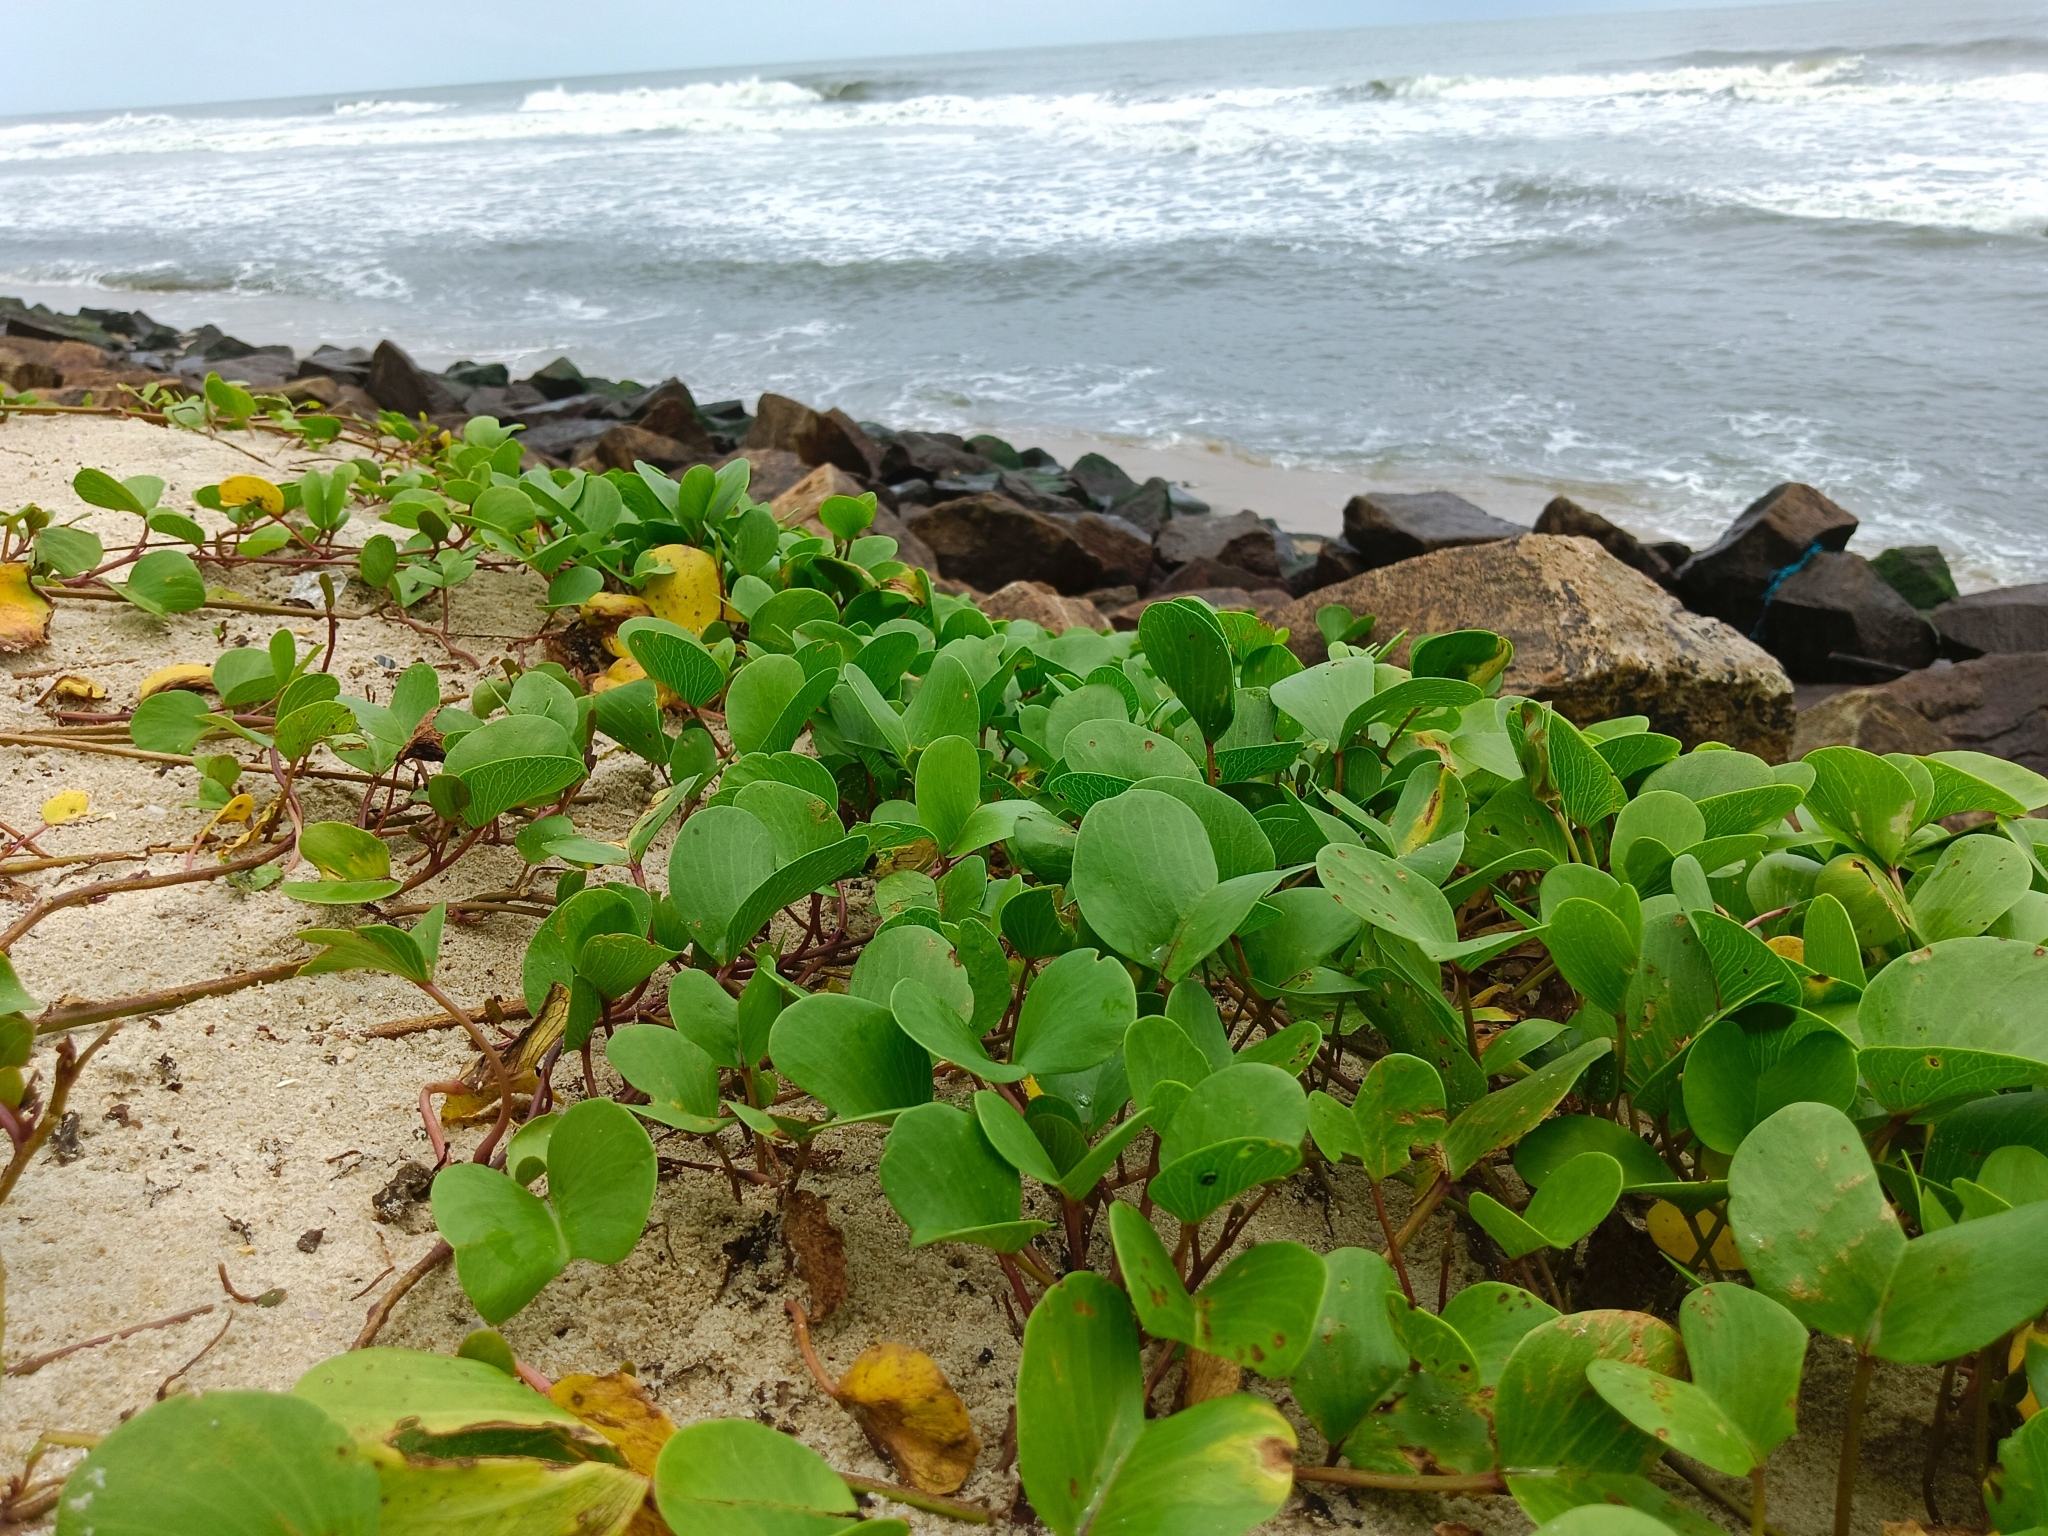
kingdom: Plantae
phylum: Tracheophyta
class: Magnoliopsida
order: Solanales
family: Convolvulaceae
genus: Ipomoea
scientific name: Ipomoea pes-caprae
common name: Beach morning glory
